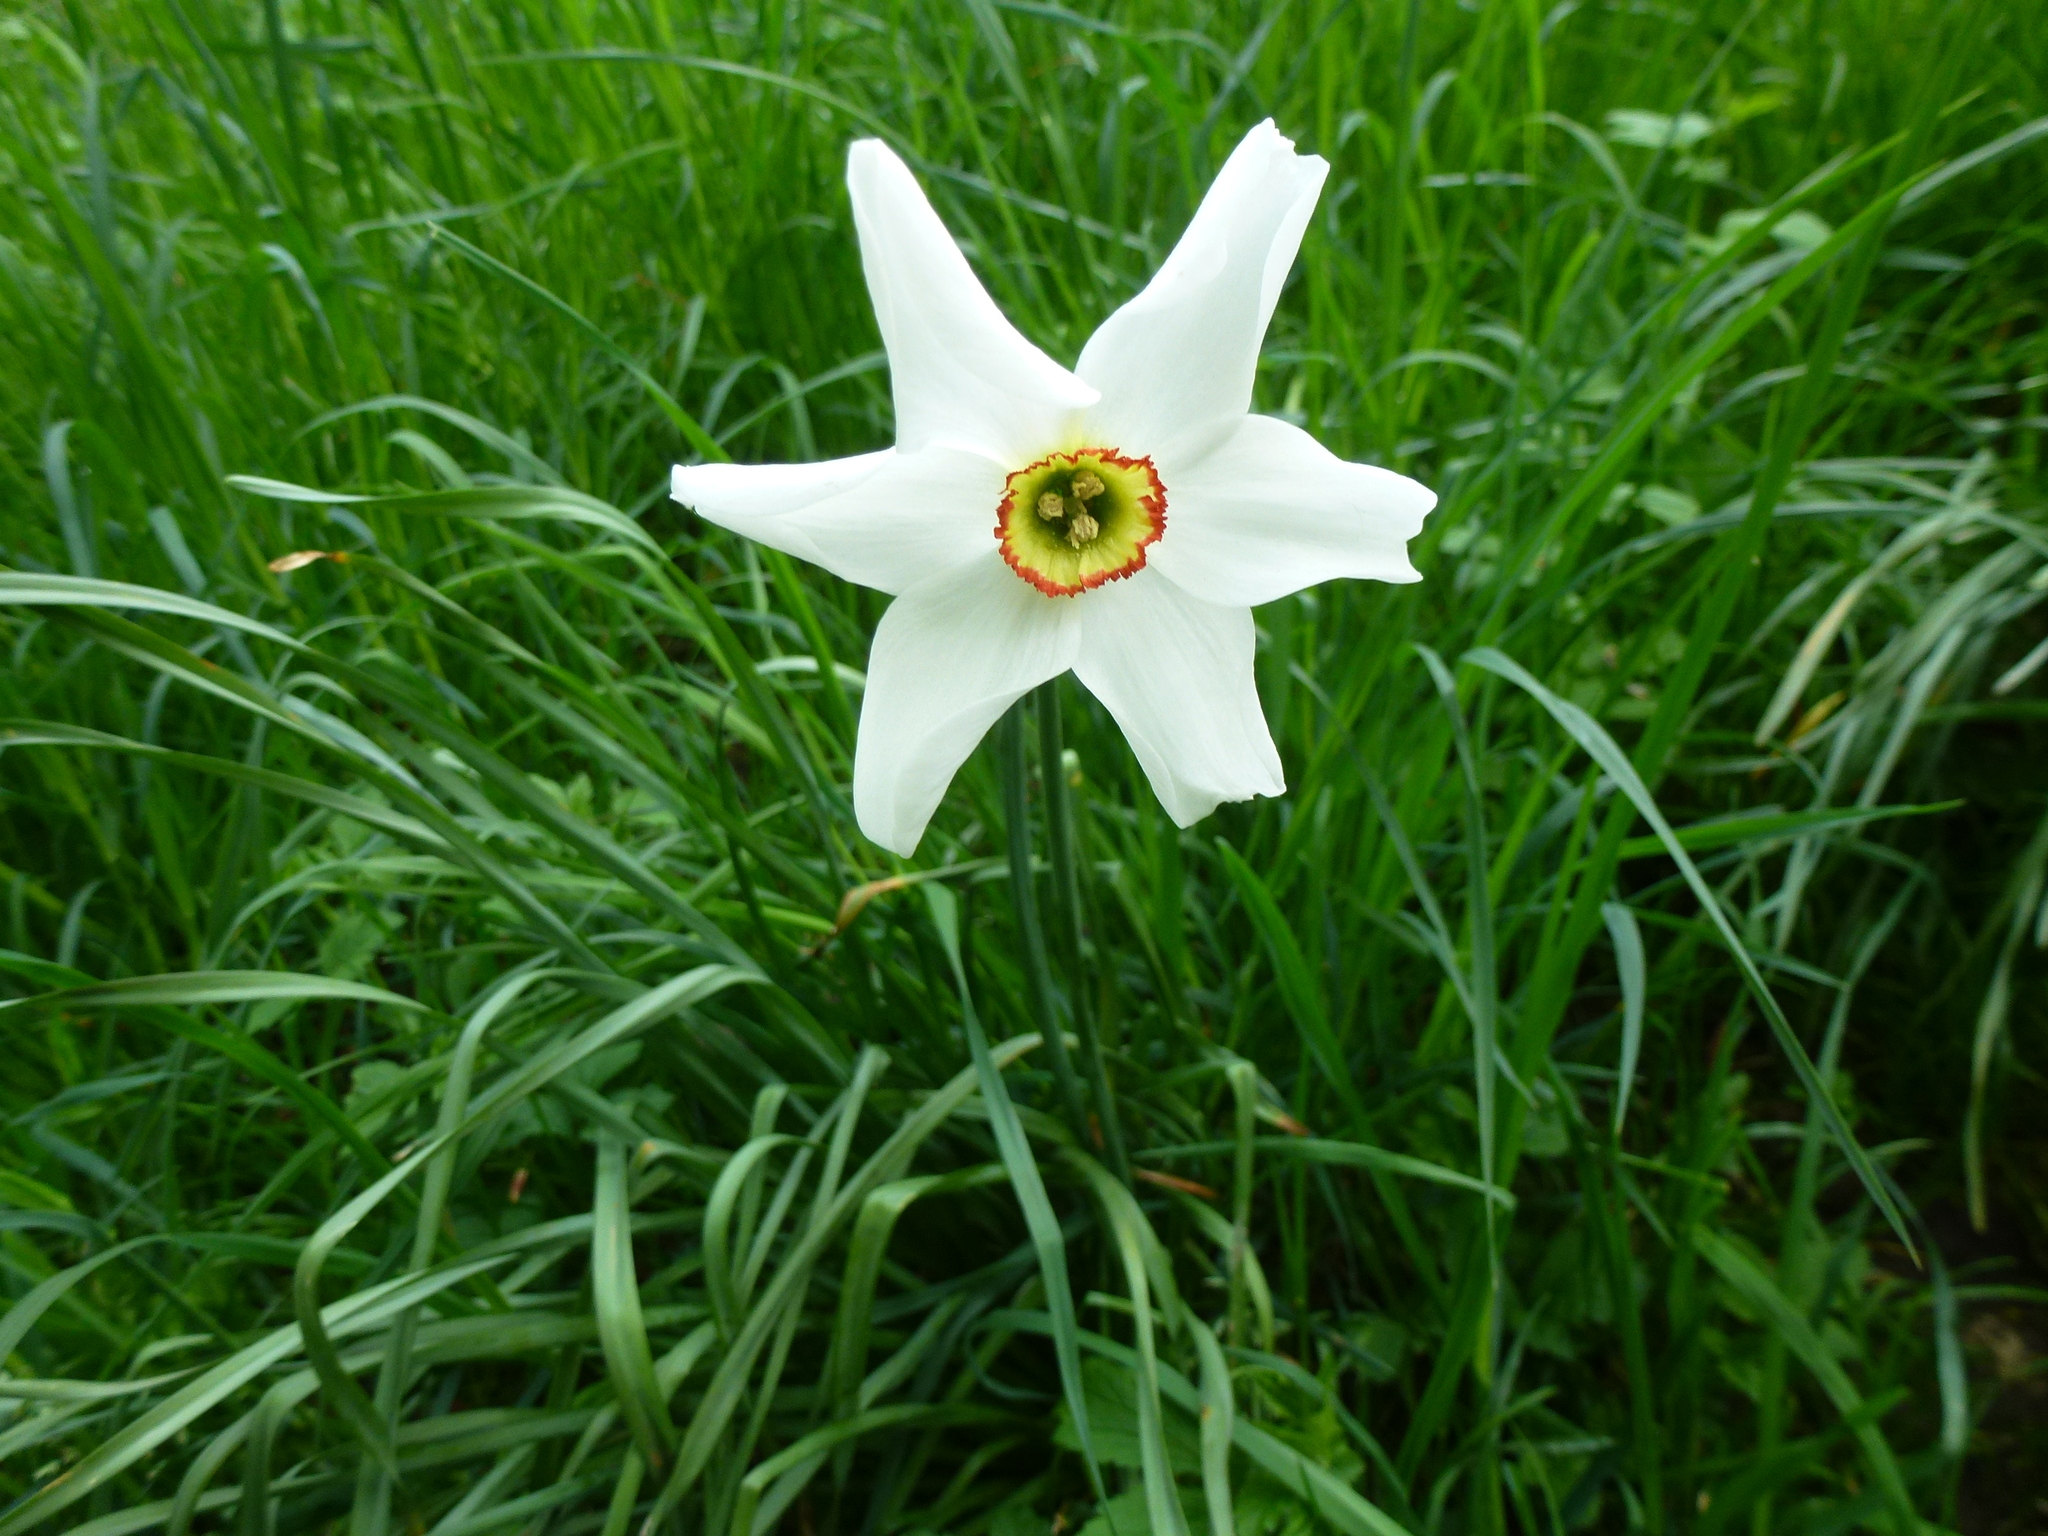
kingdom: Plantae
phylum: Tracheophyta
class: Liliopsida
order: Asparagales
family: Amaryllidaceae
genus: Narcissus
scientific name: Narcissus poeticus
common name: Pheasant's-eye daffodil
